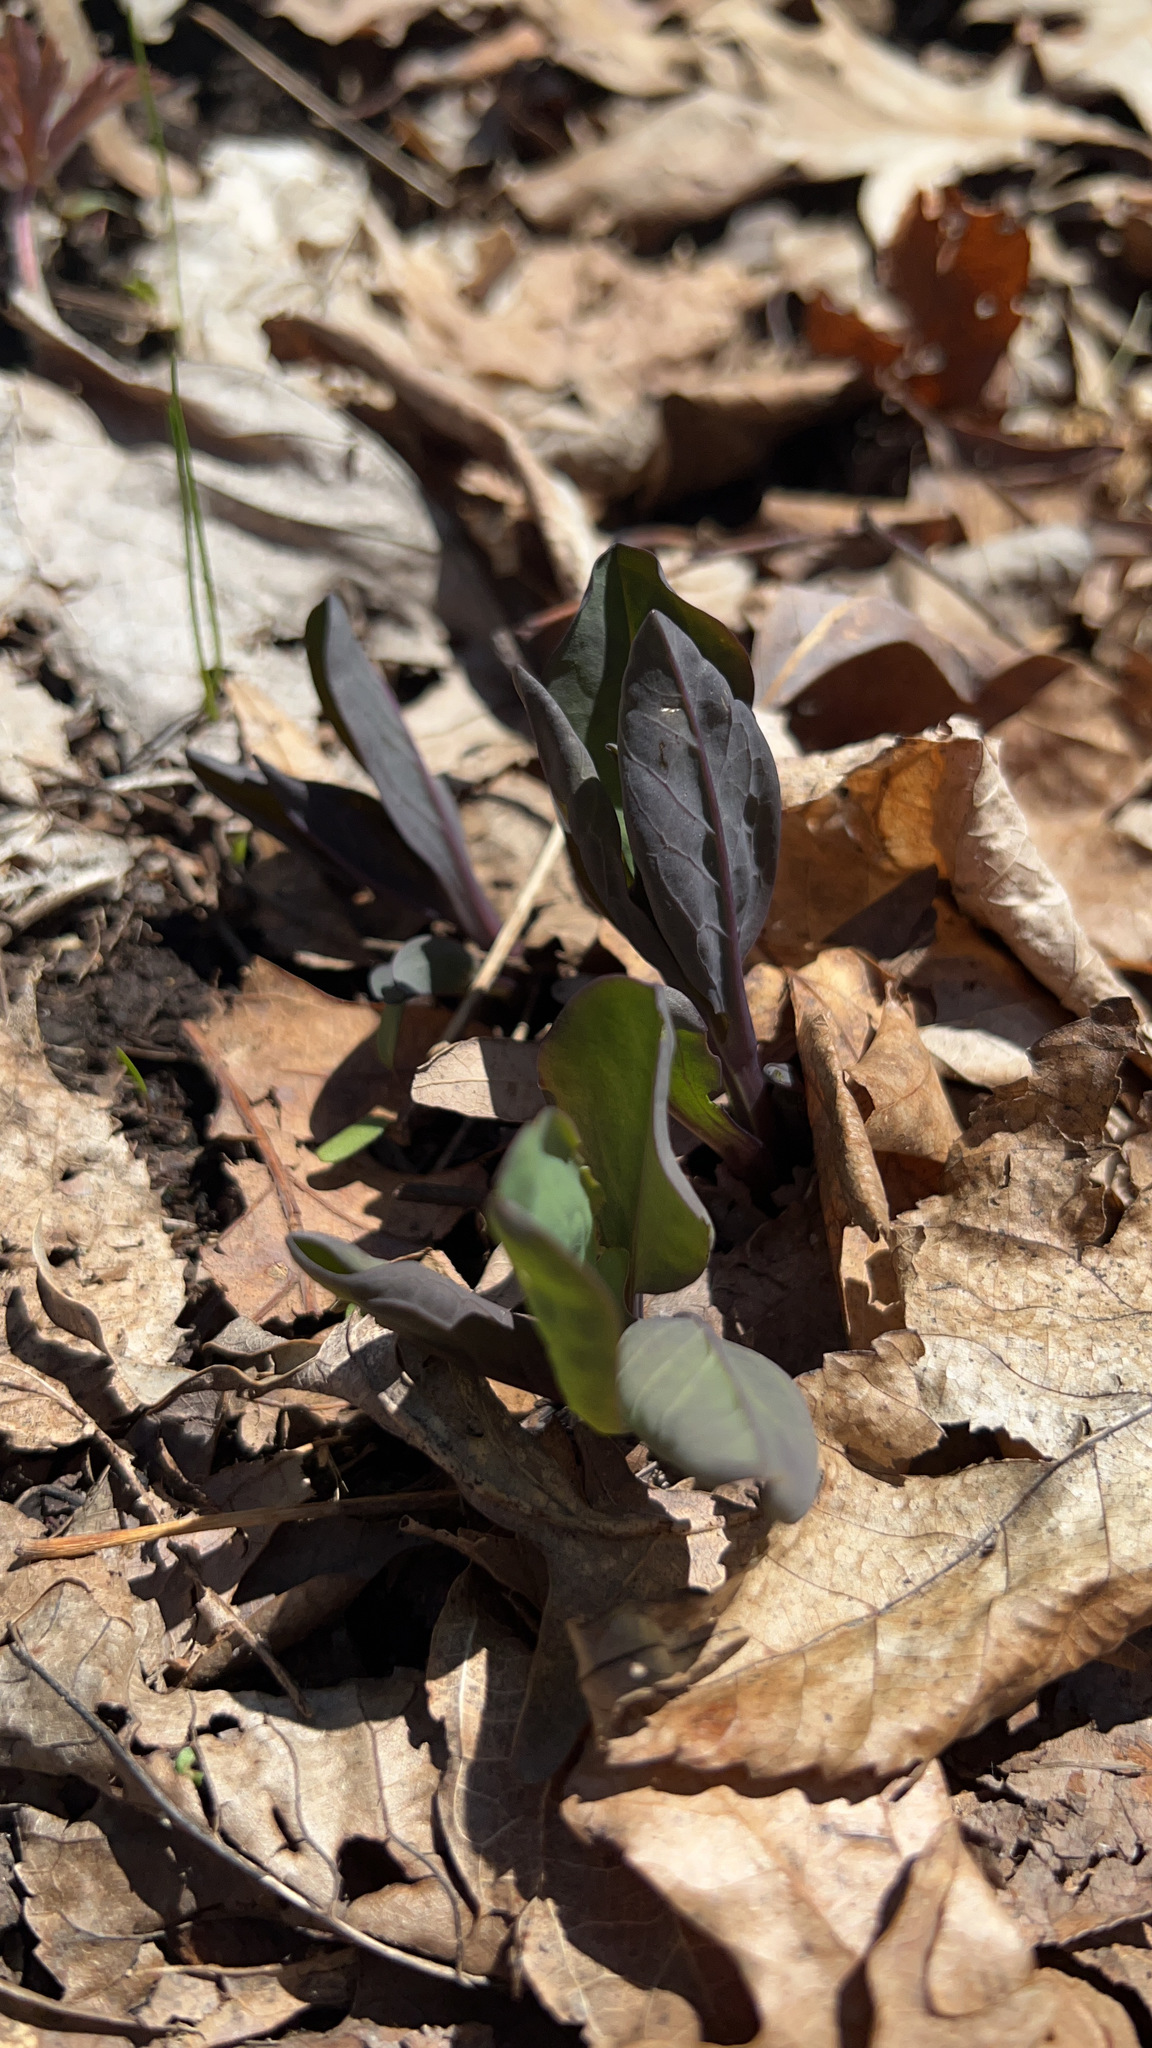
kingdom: Plantae
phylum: Tracheophyta
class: Magnoliopsida
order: Boraginales
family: Boraginaceae
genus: Mertensia
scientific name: Mertensia virginica
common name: Virginia bluebells
